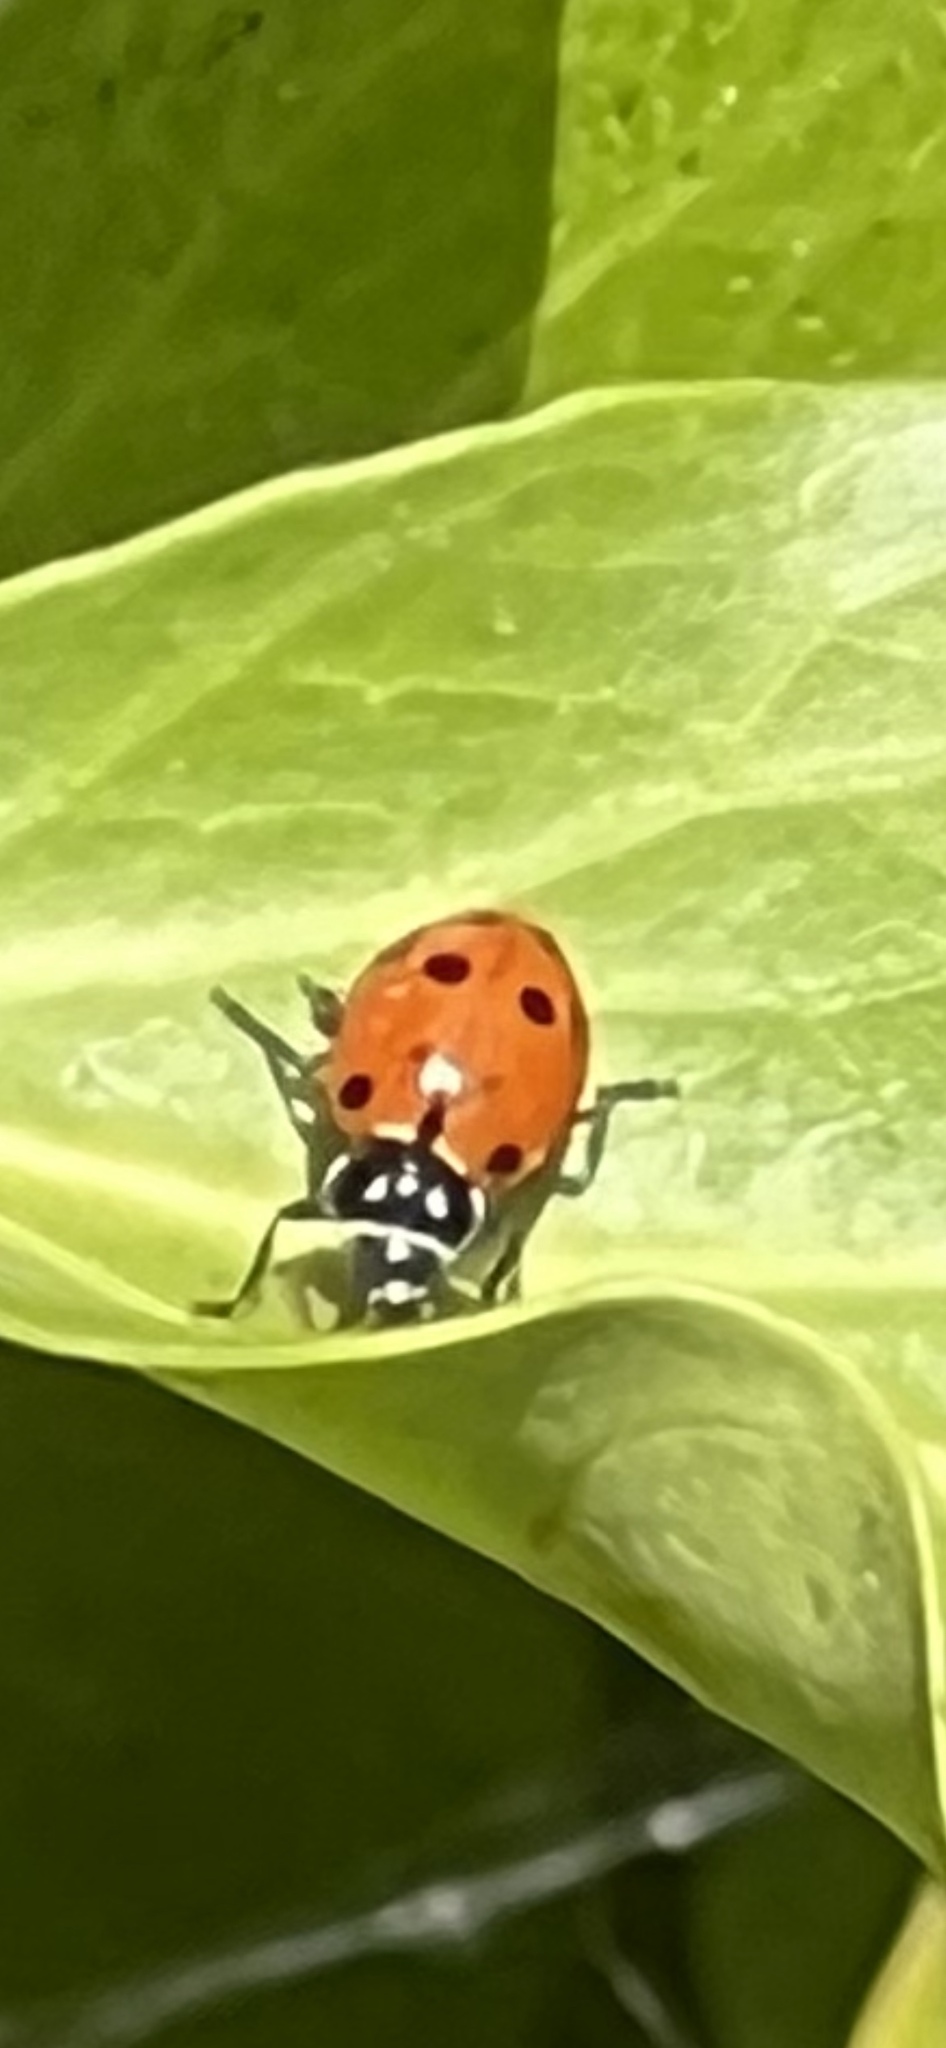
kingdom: Animalia
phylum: Arthropoda
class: Insecta
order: Coleoptera
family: Coccinellidae
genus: Hippodamia
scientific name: Hippodamia convergens
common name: Convergent lady beetle
